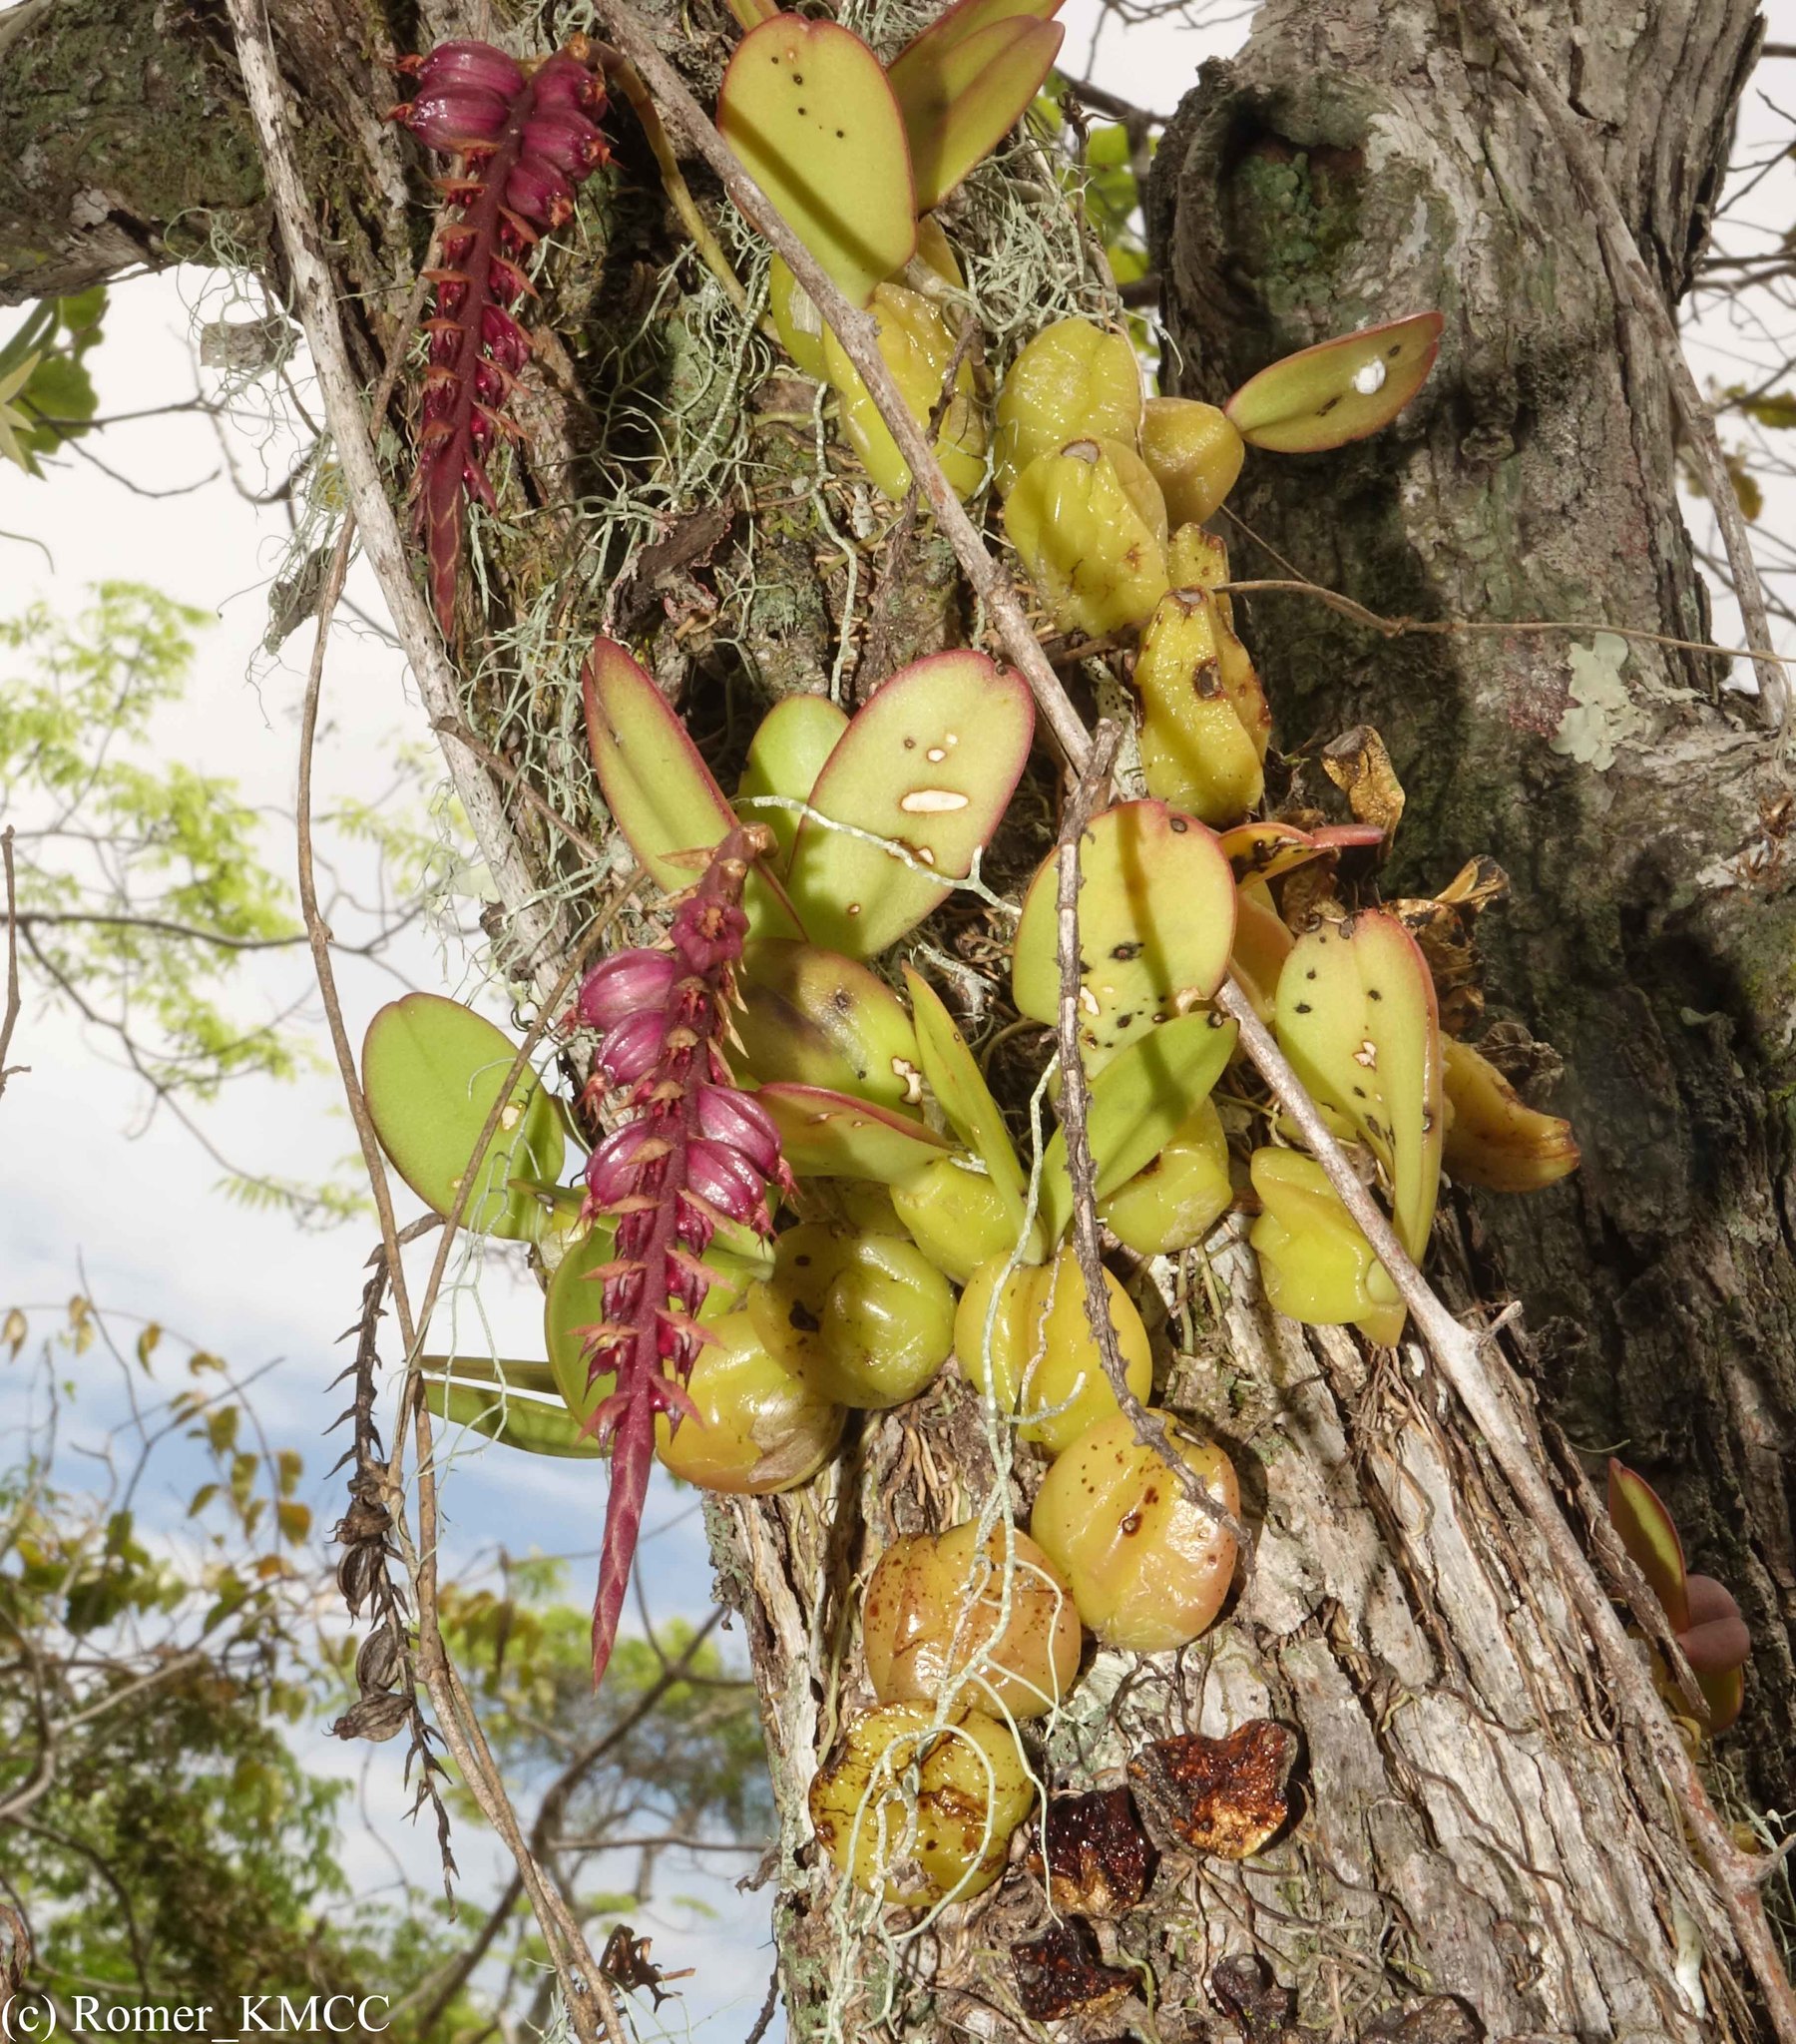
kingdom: Plantae
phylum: Tracheophyta
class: Liliopsida
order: Asparagales
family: Orchidaceae
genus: Bulbophyllum
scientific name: Bulbophyllum rubrum
